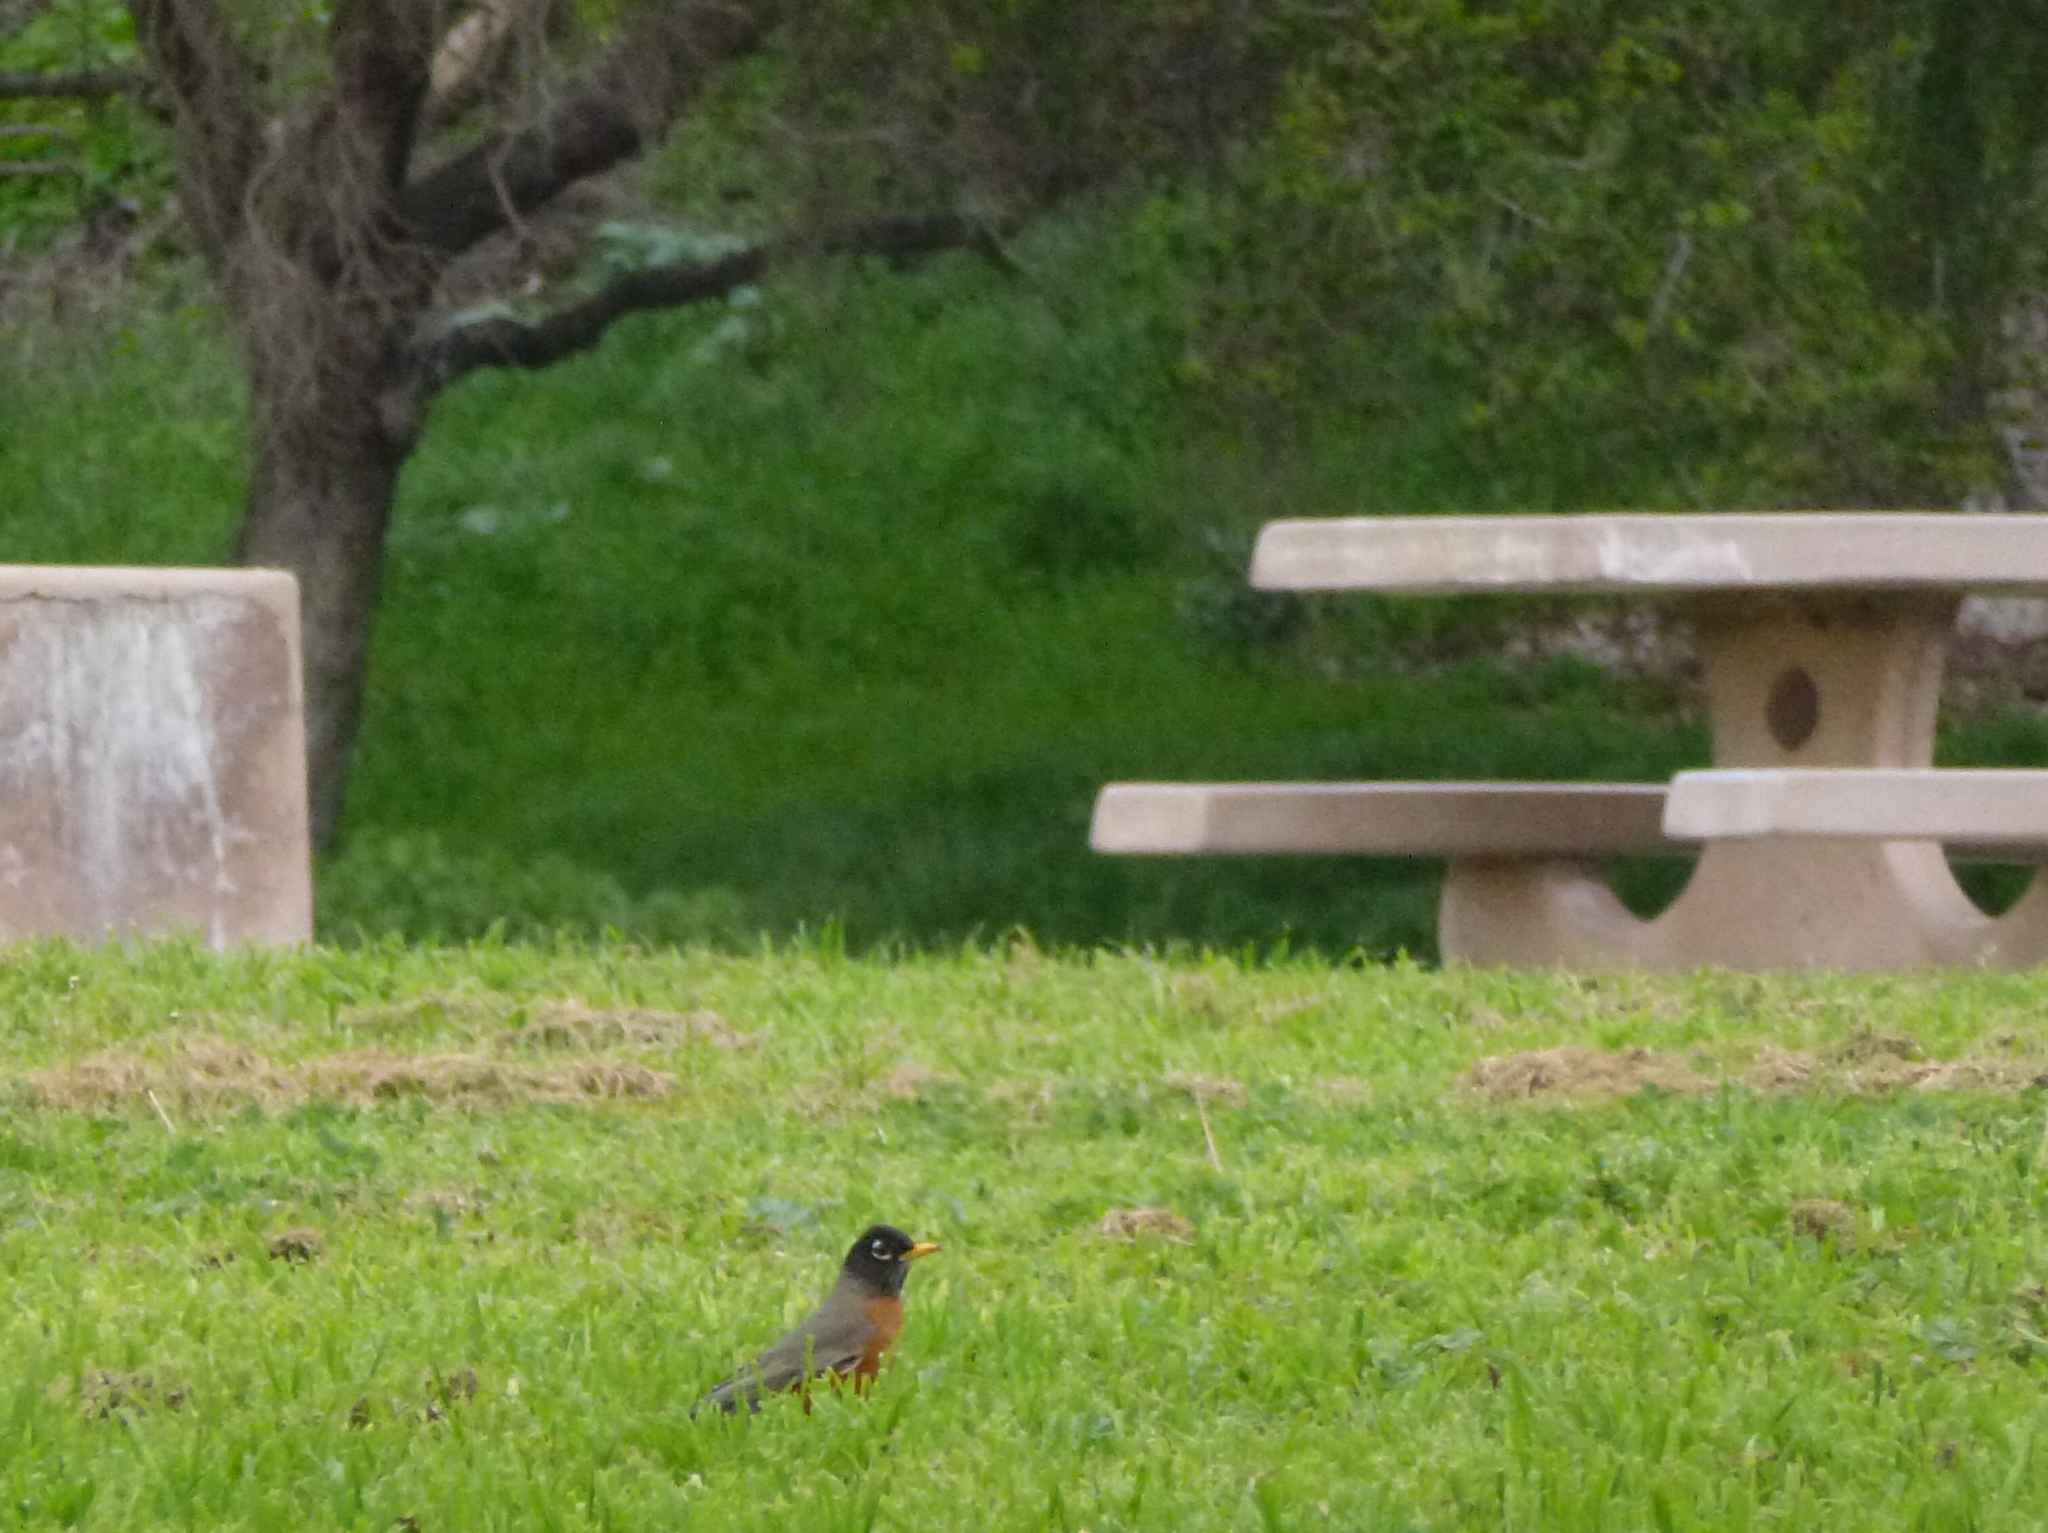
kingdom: Animalia
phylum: Chordata
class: Aves
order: Passeriformes
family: Turdidae
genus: Turdus
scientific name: Turdus migratorius
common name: American robin
